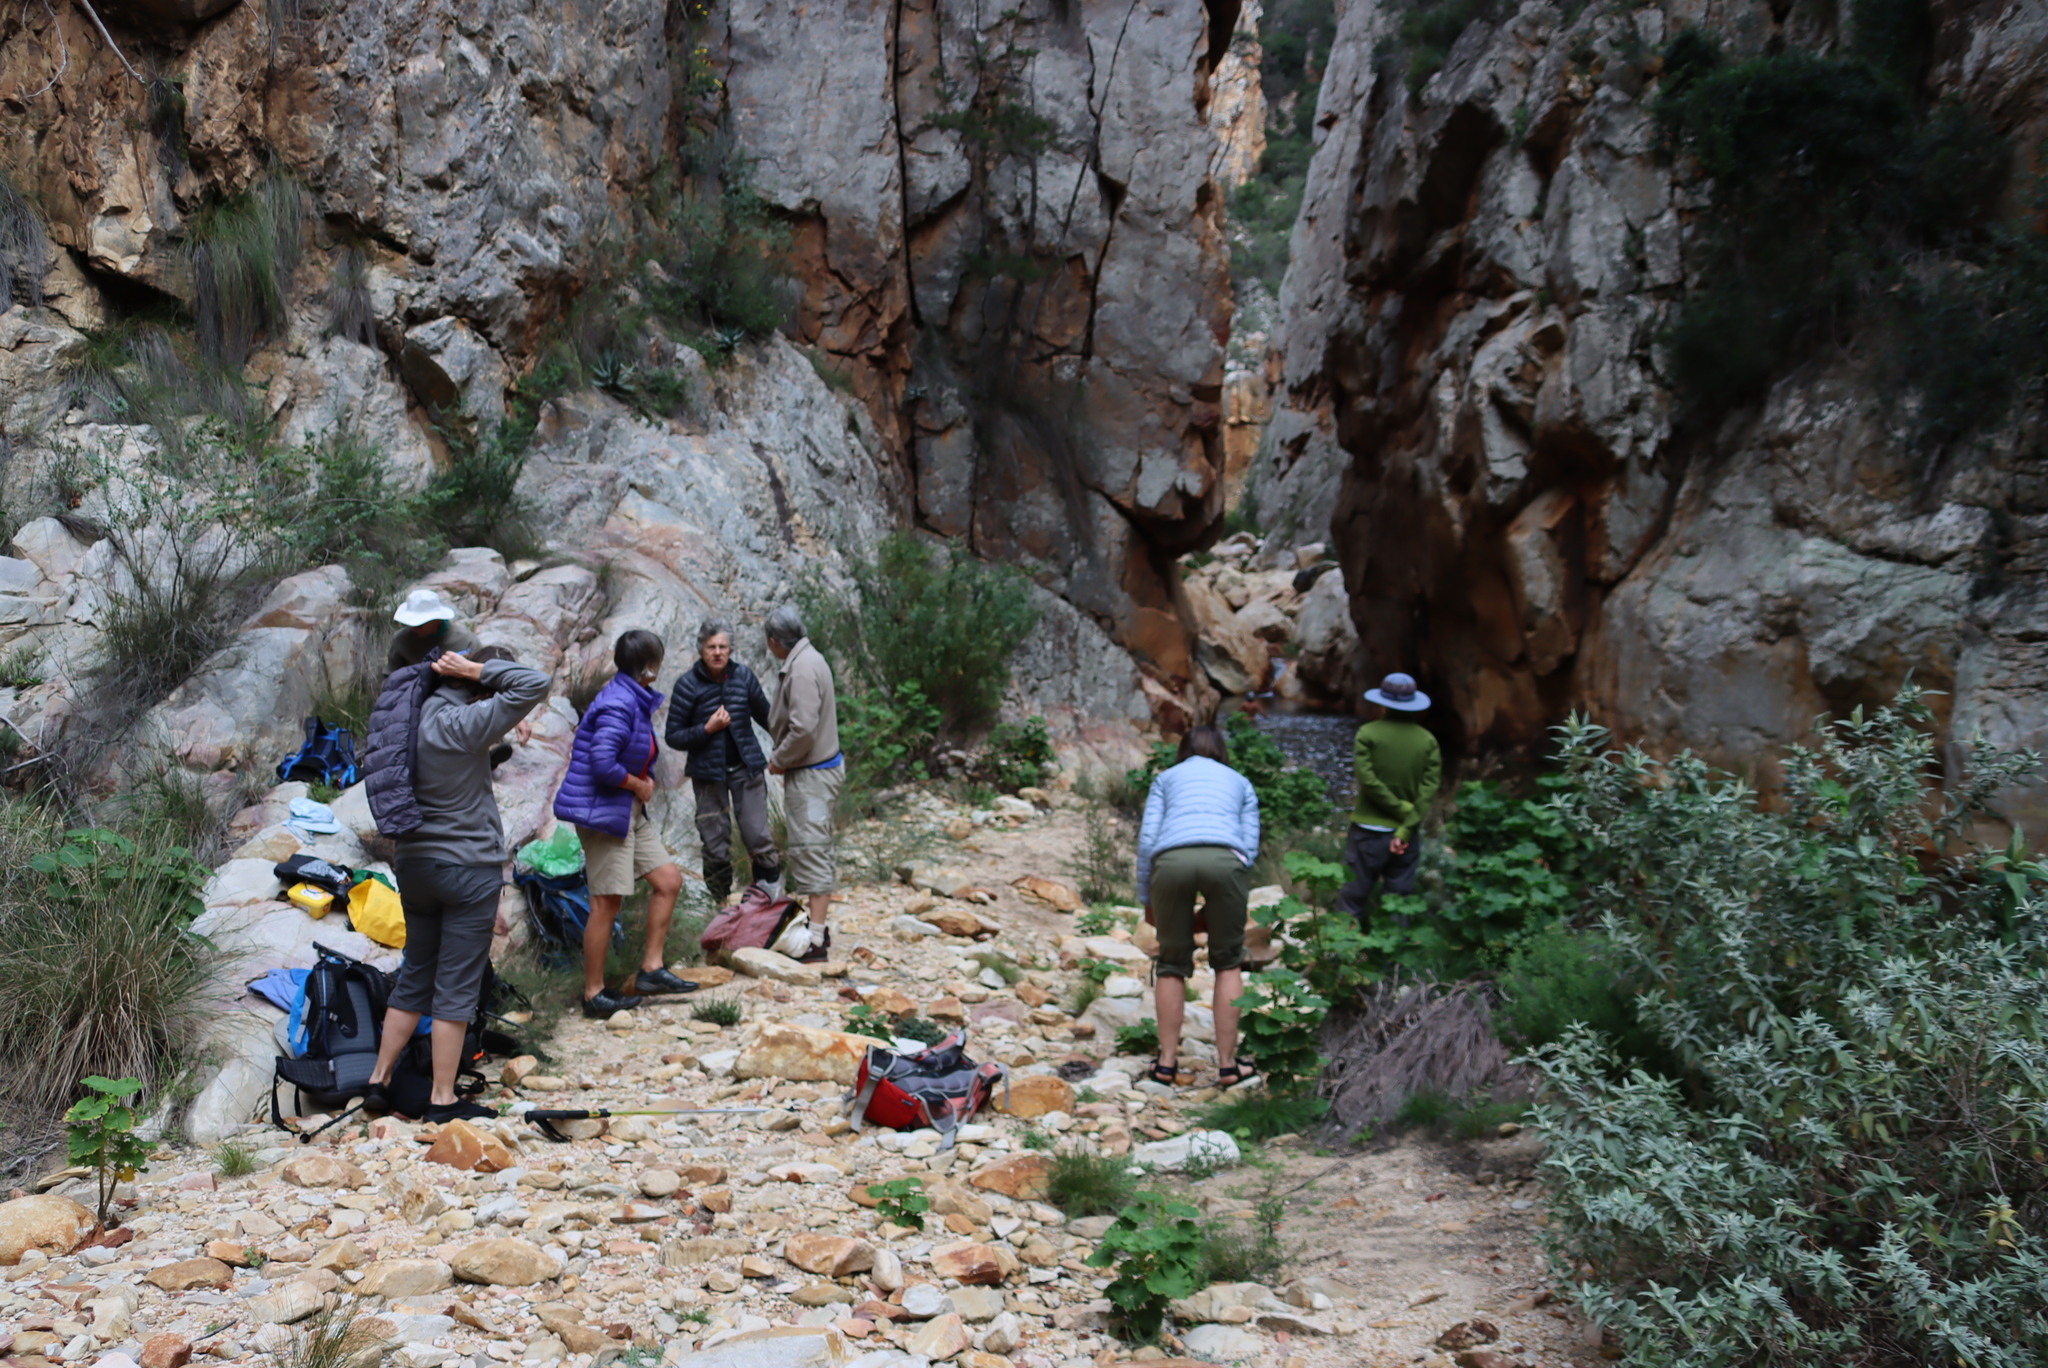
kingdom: Plantae
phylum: Tracheophyta
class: Magnoliopsida
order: Geraniales
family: Geraniaceae
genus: Pelargonium
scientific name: Pelargonium zonale
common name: Horseshoe geranium
